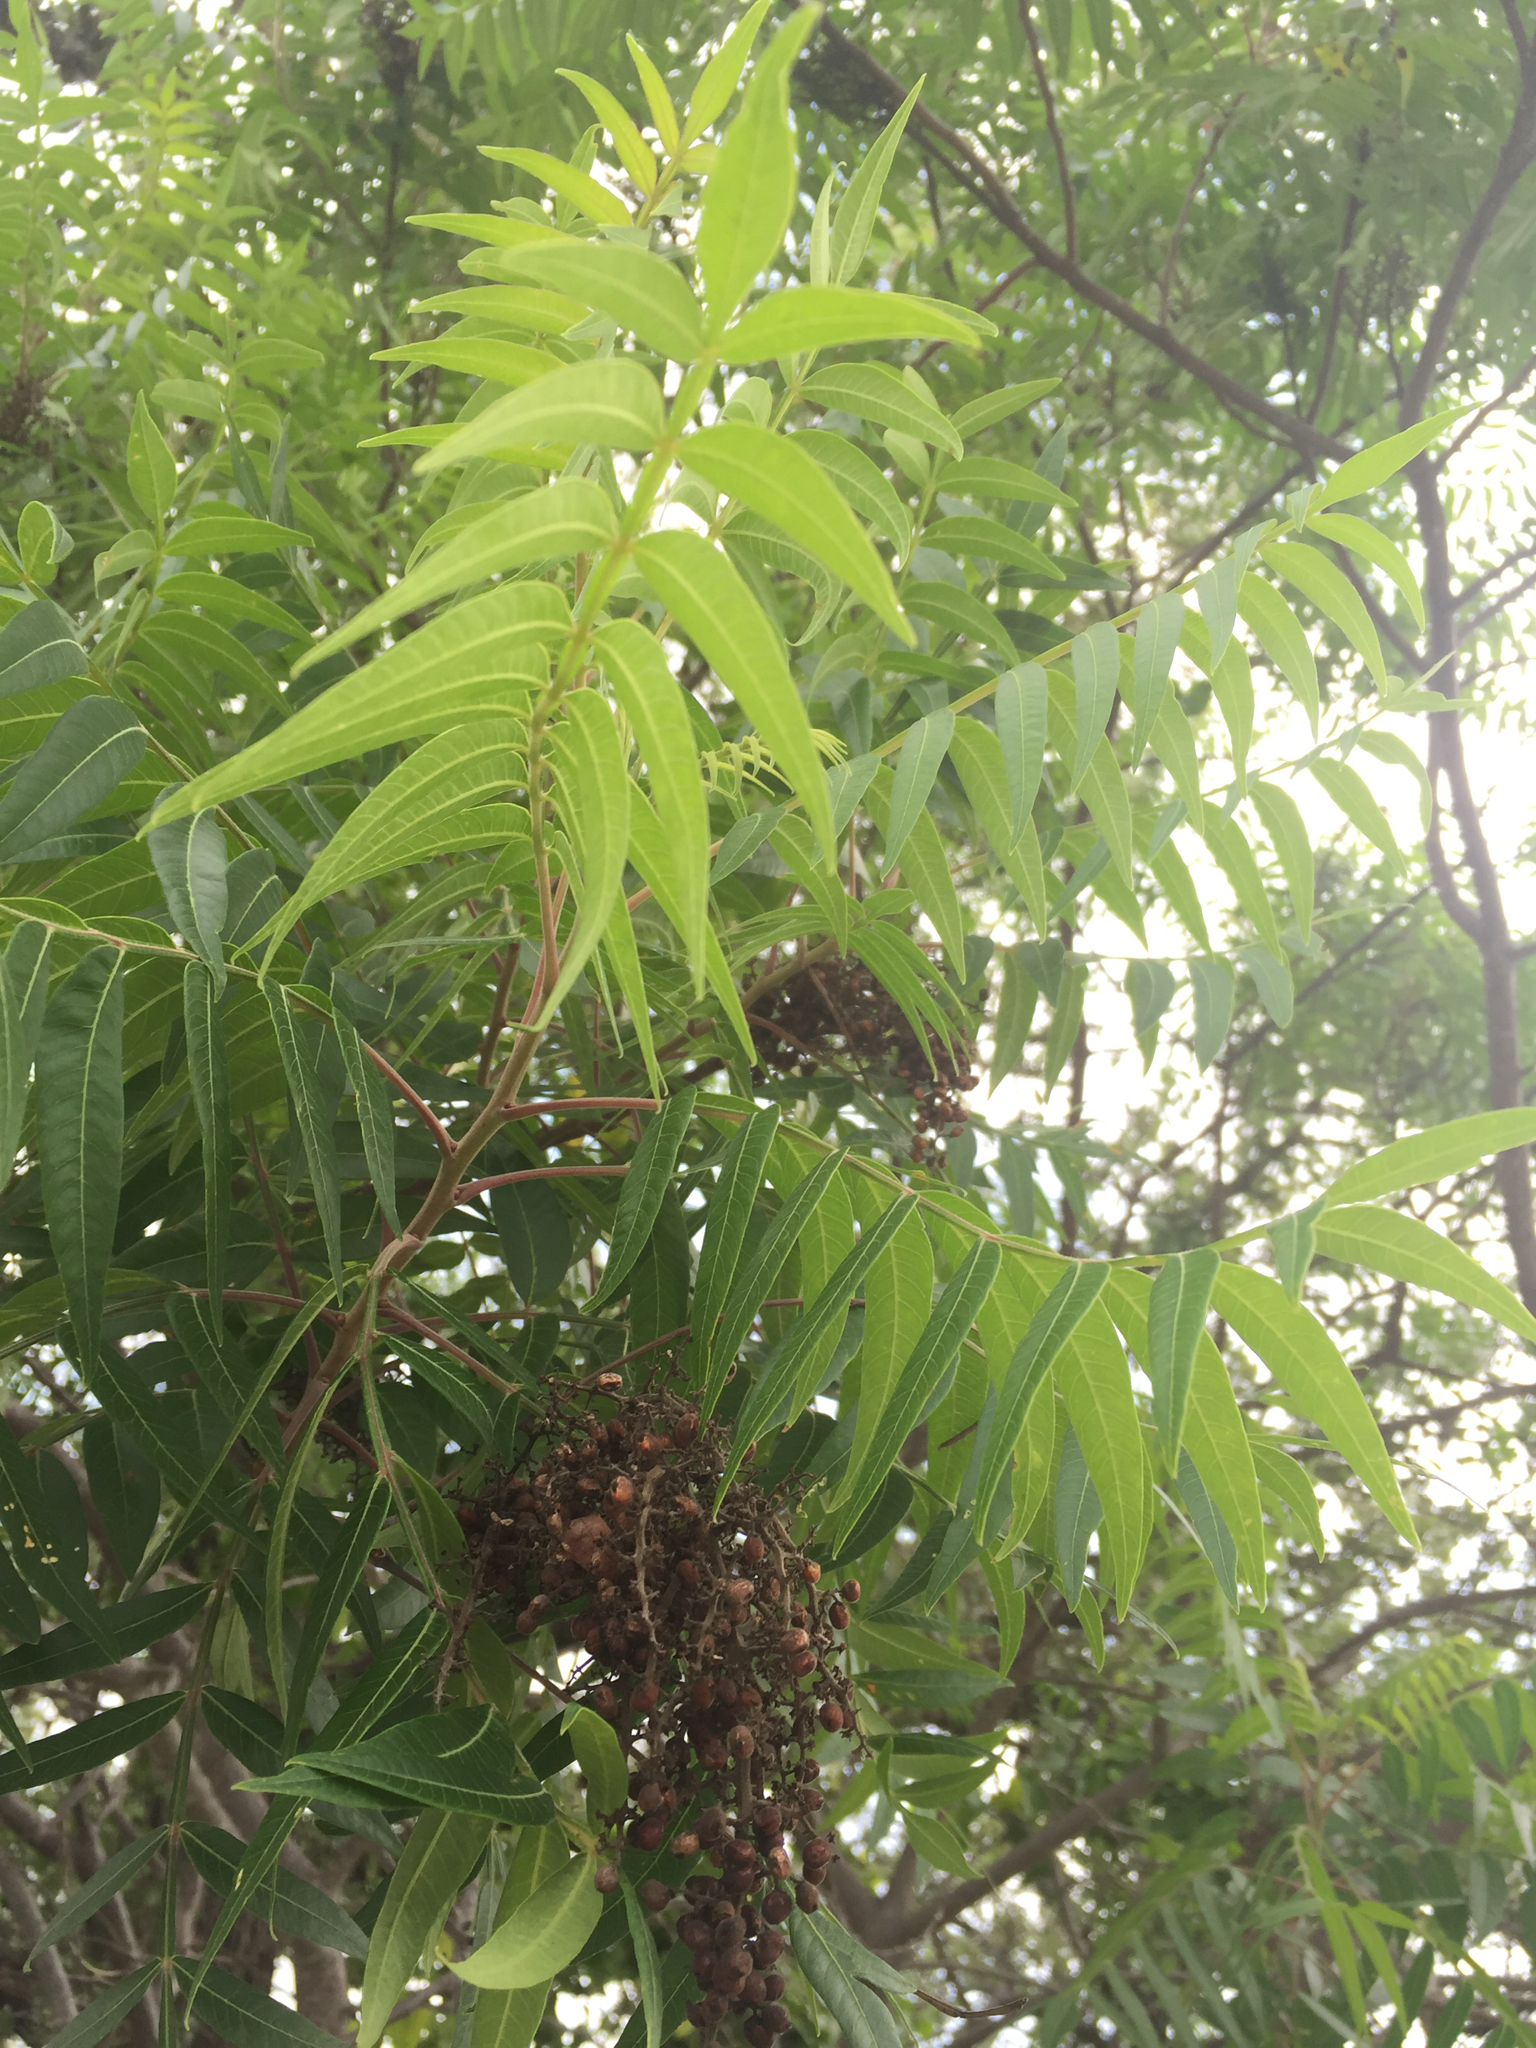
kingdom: Plantae
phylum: Tracheophyta
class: Magnoliopsida
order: Sapindales
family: Anacardiaceae
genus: Rhus
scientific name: Rhus lanceolata
